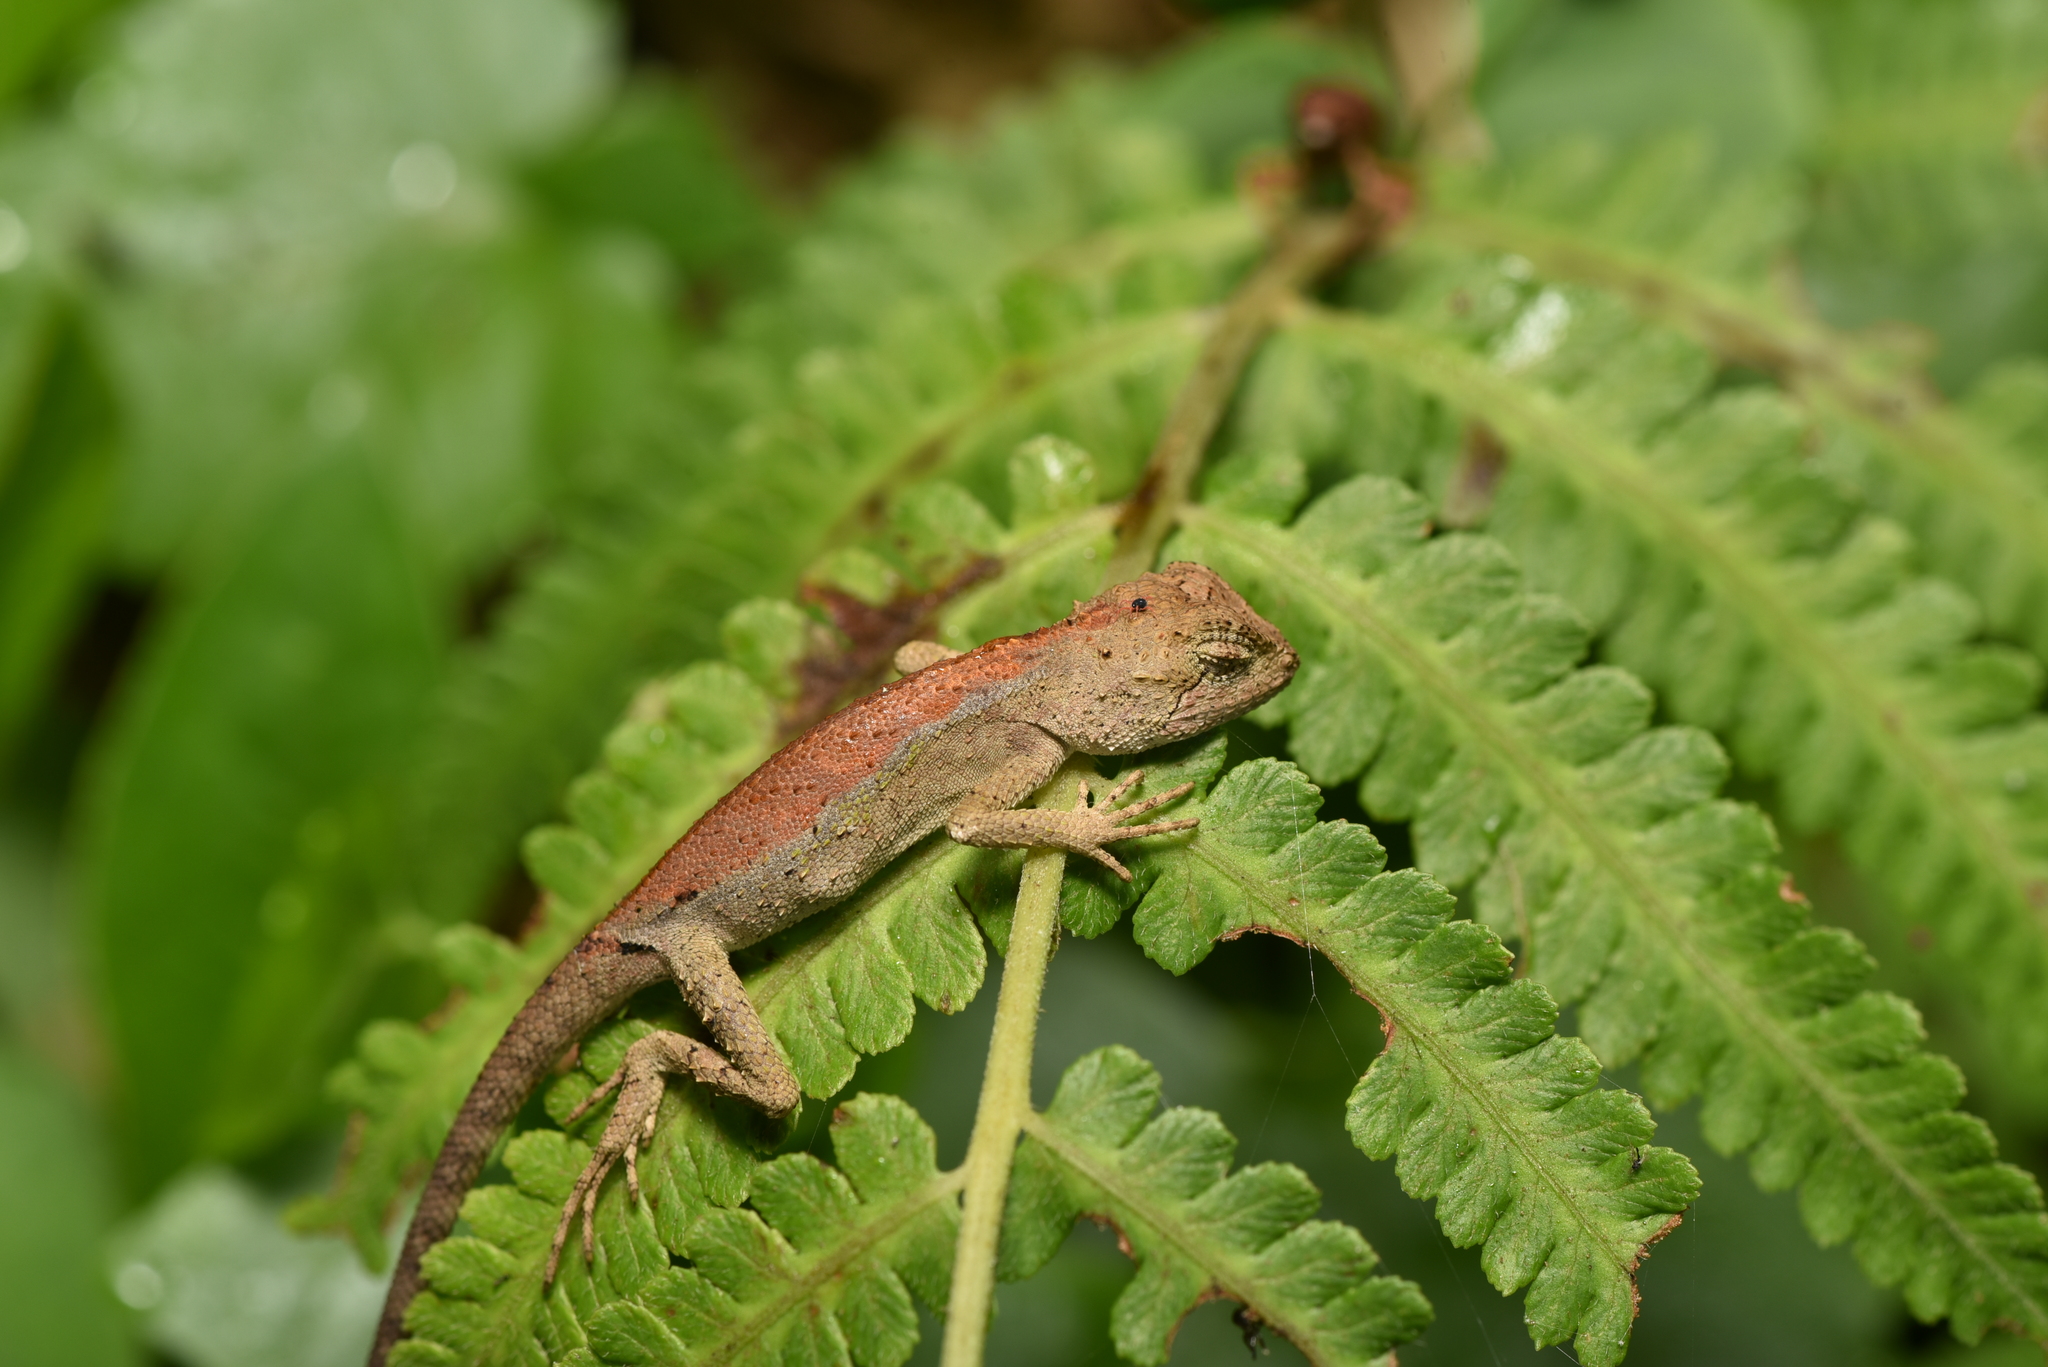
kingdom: Animalia
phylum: Chordata
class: Squamata
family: Agamidae
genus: Diploderma
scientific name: Diploderma swinhonis
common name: Taiwan japalure
